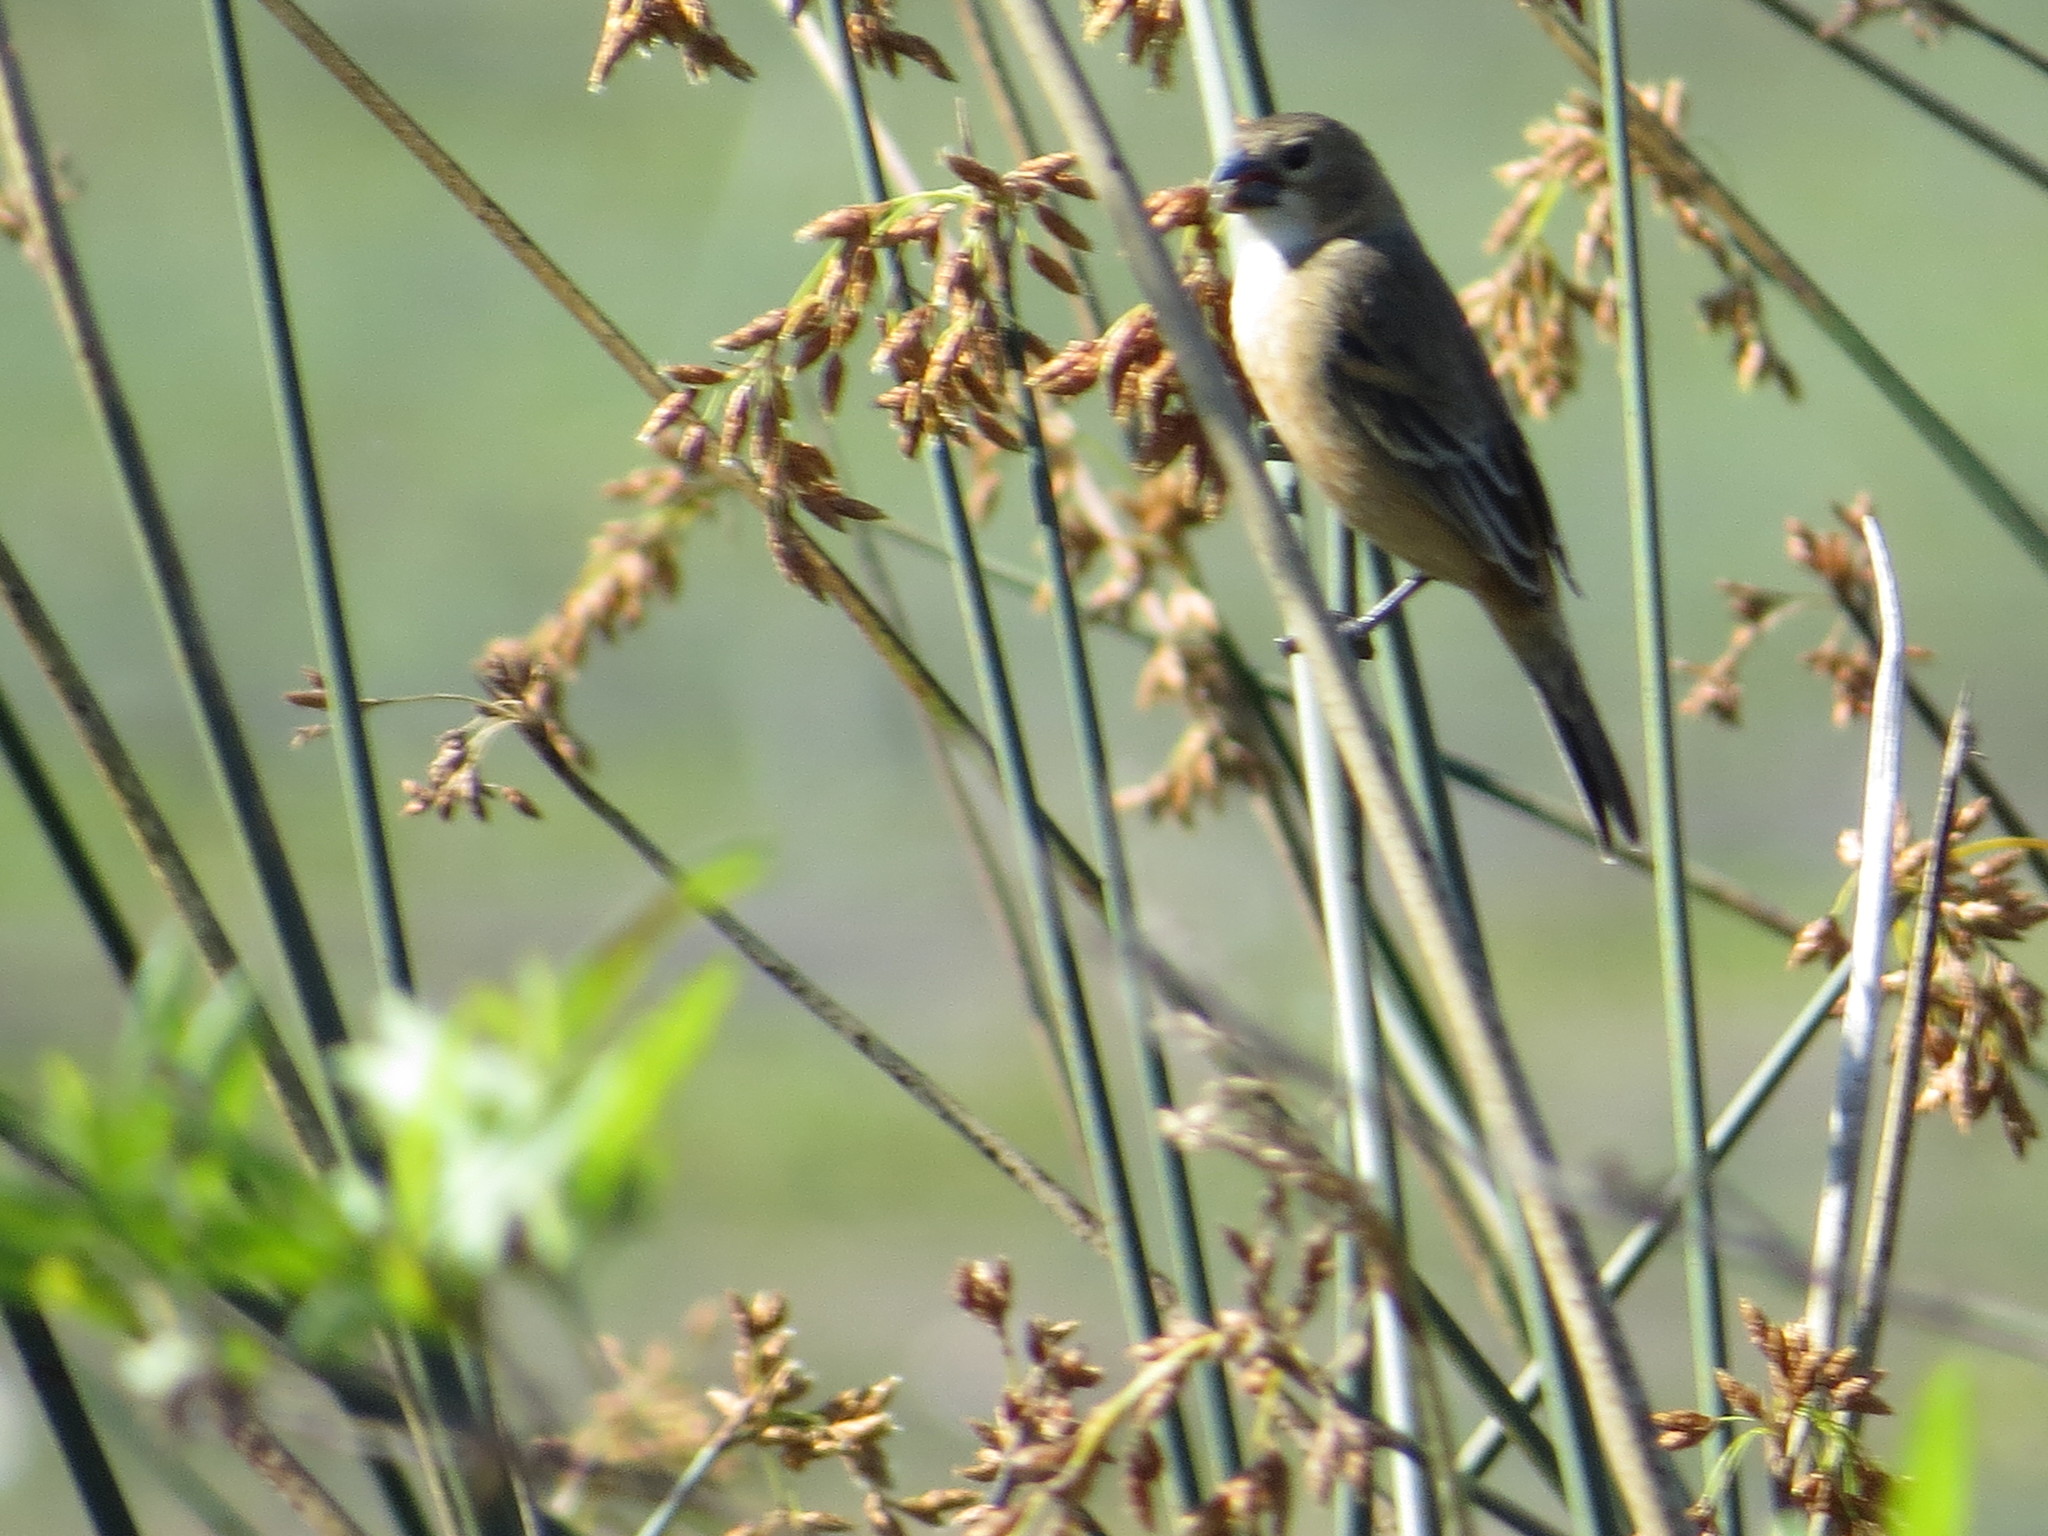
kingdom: Animalia
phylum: Chordata
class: Aves
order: Passeriformes
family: Thraupidae
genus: Sporophila
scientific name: Sporophila collaris
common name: Rusty-collared seedeater
